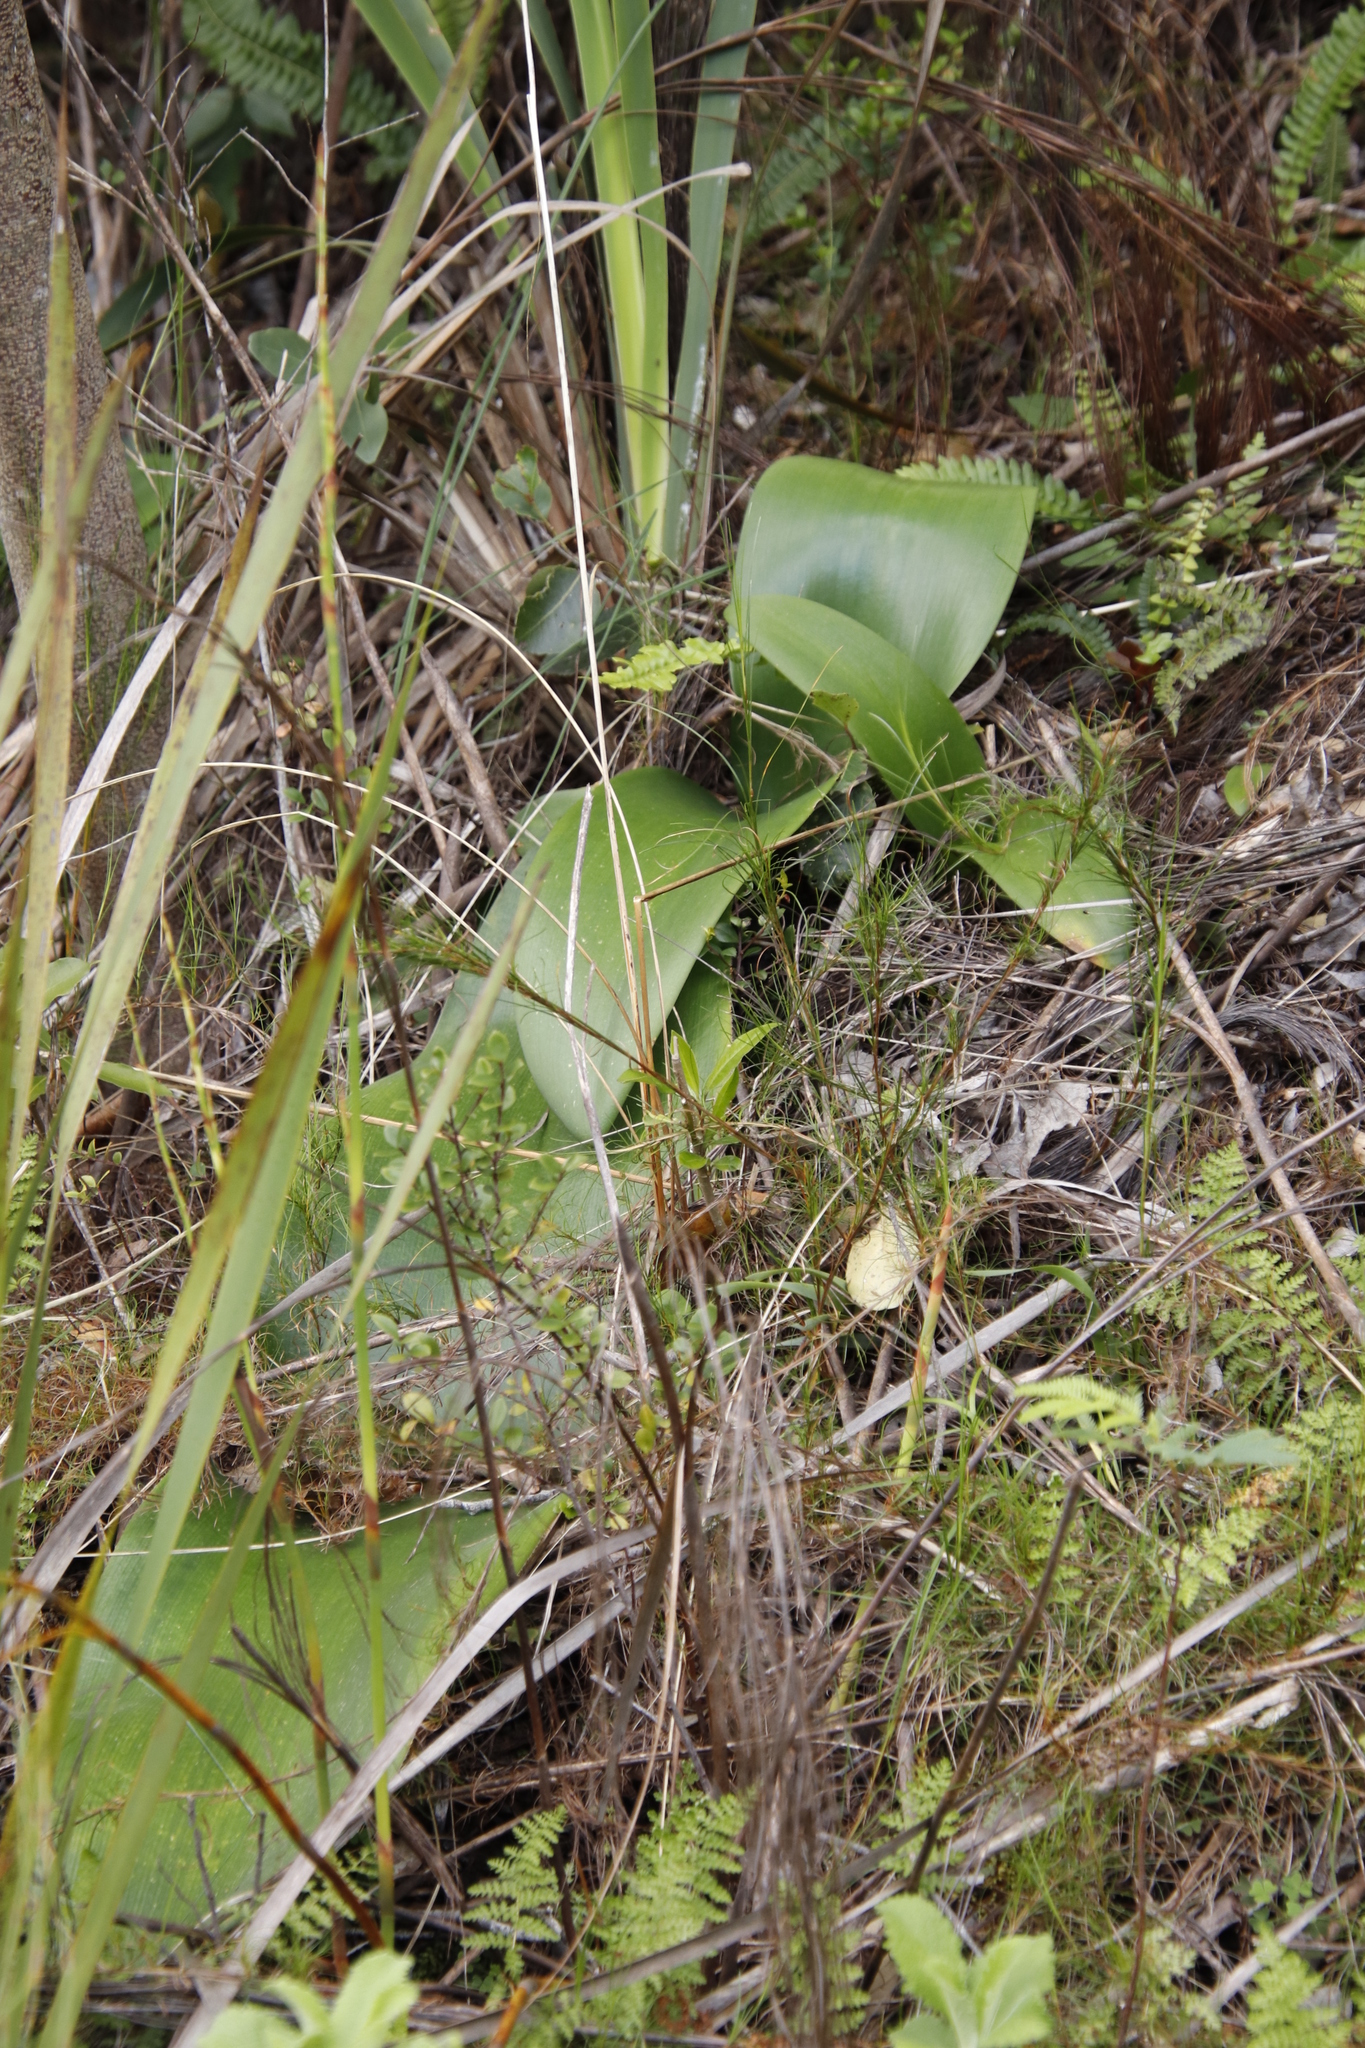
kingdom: Plantae
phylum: Tracheophyta
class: Liliopsida
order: Asparagales
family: Amaryllidaceae
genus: Haemanthus
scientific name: Haemanthus coccineus
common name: Cape-tulip
